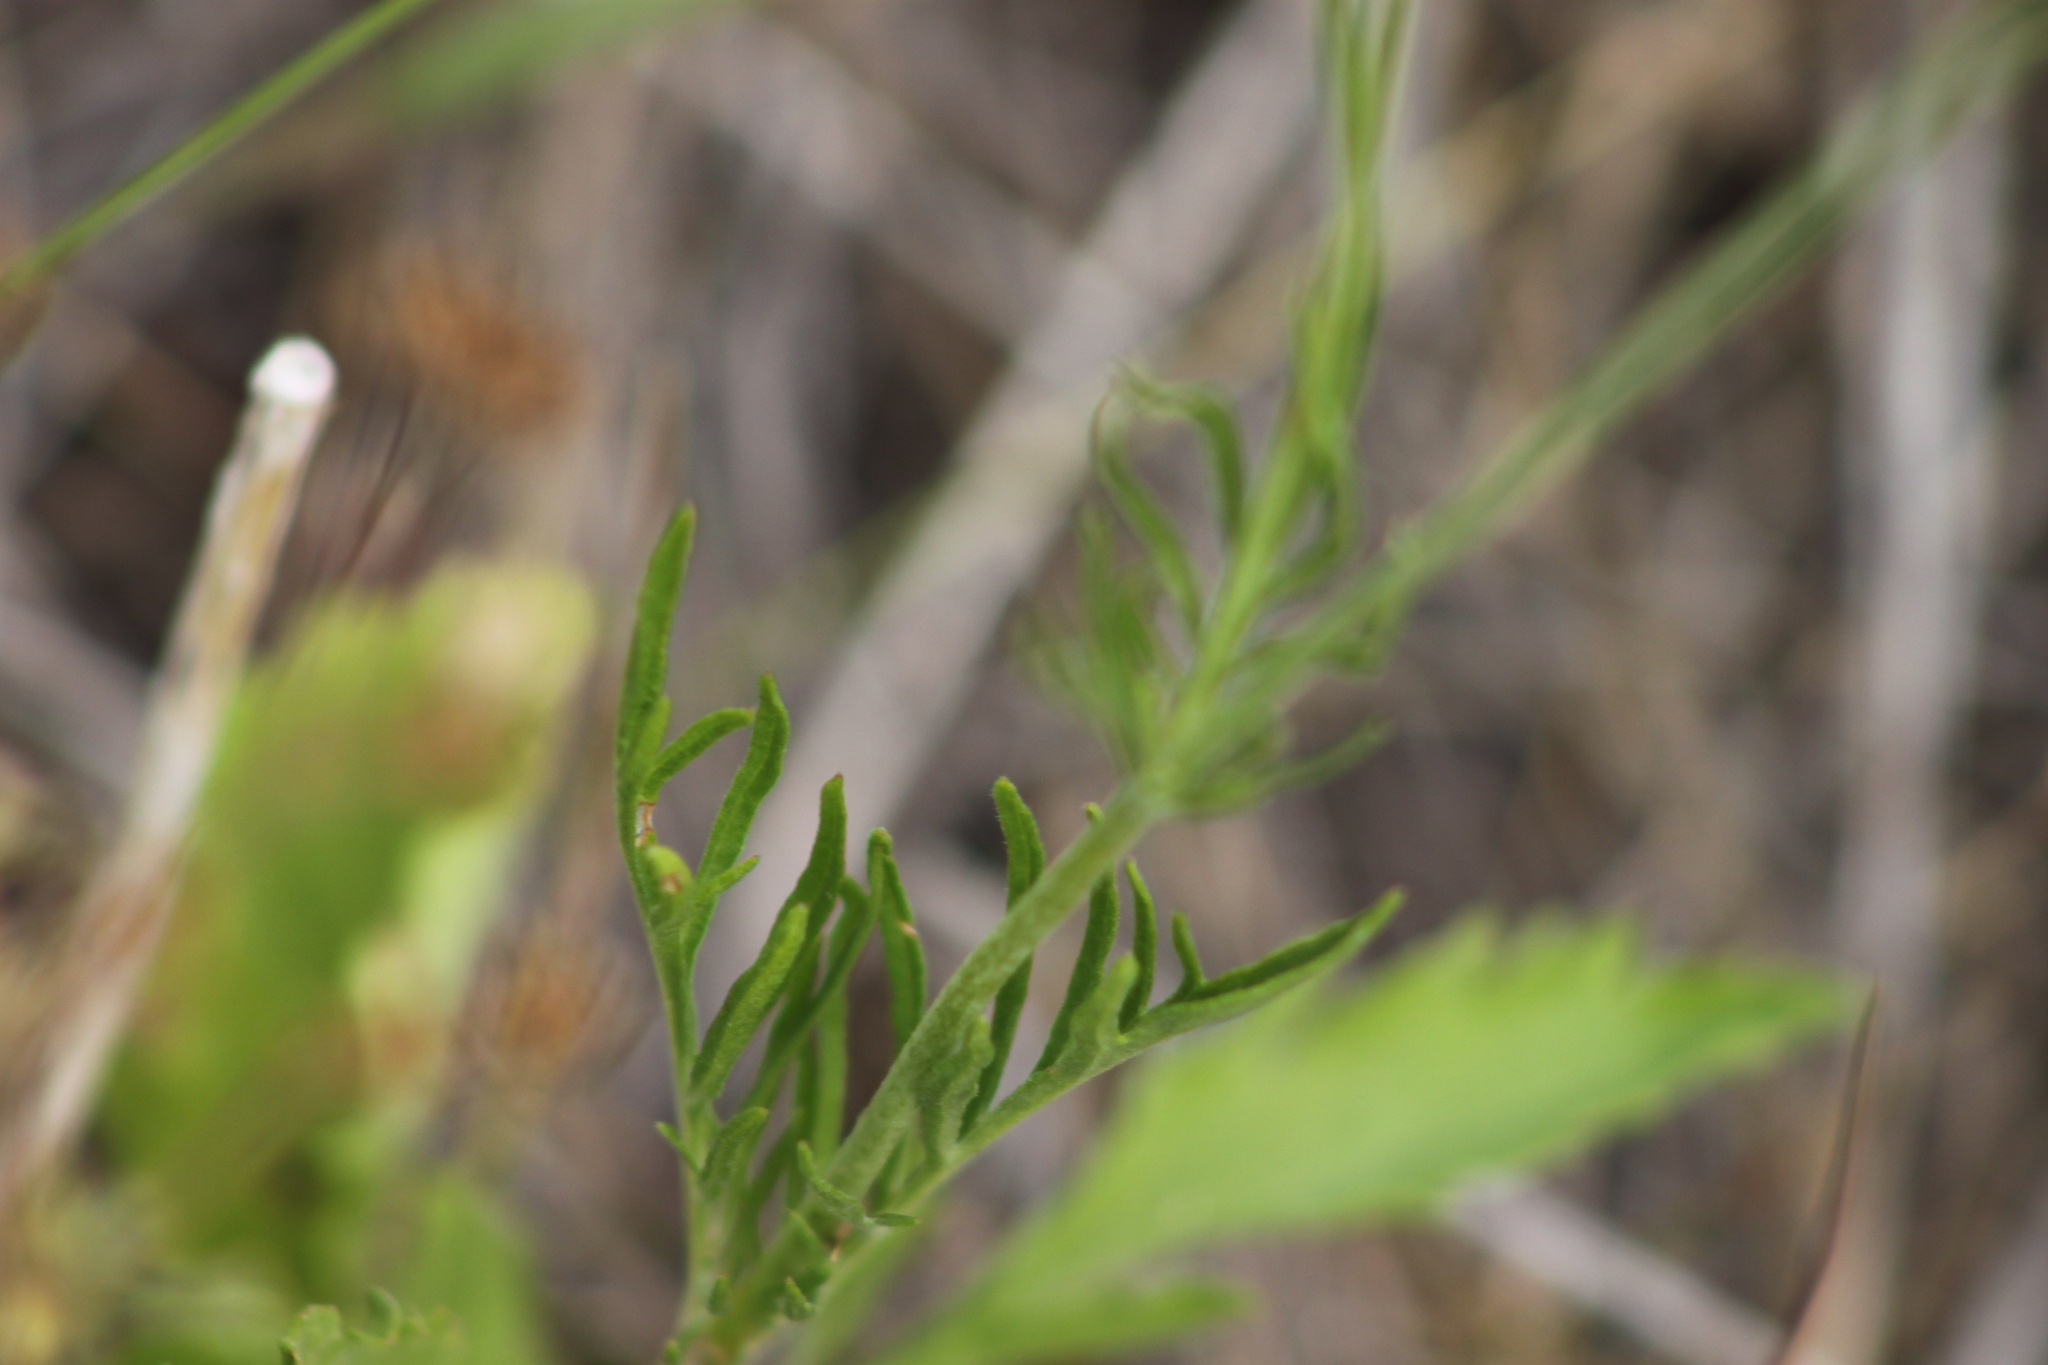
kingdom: Plantae
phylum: Tracheophyta
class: Magnoliopsida
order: Dipsacales
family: Caprifoliaceae
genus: Scabiosa
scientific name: Scabiosa ochroleuca
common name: Cream pincushions
